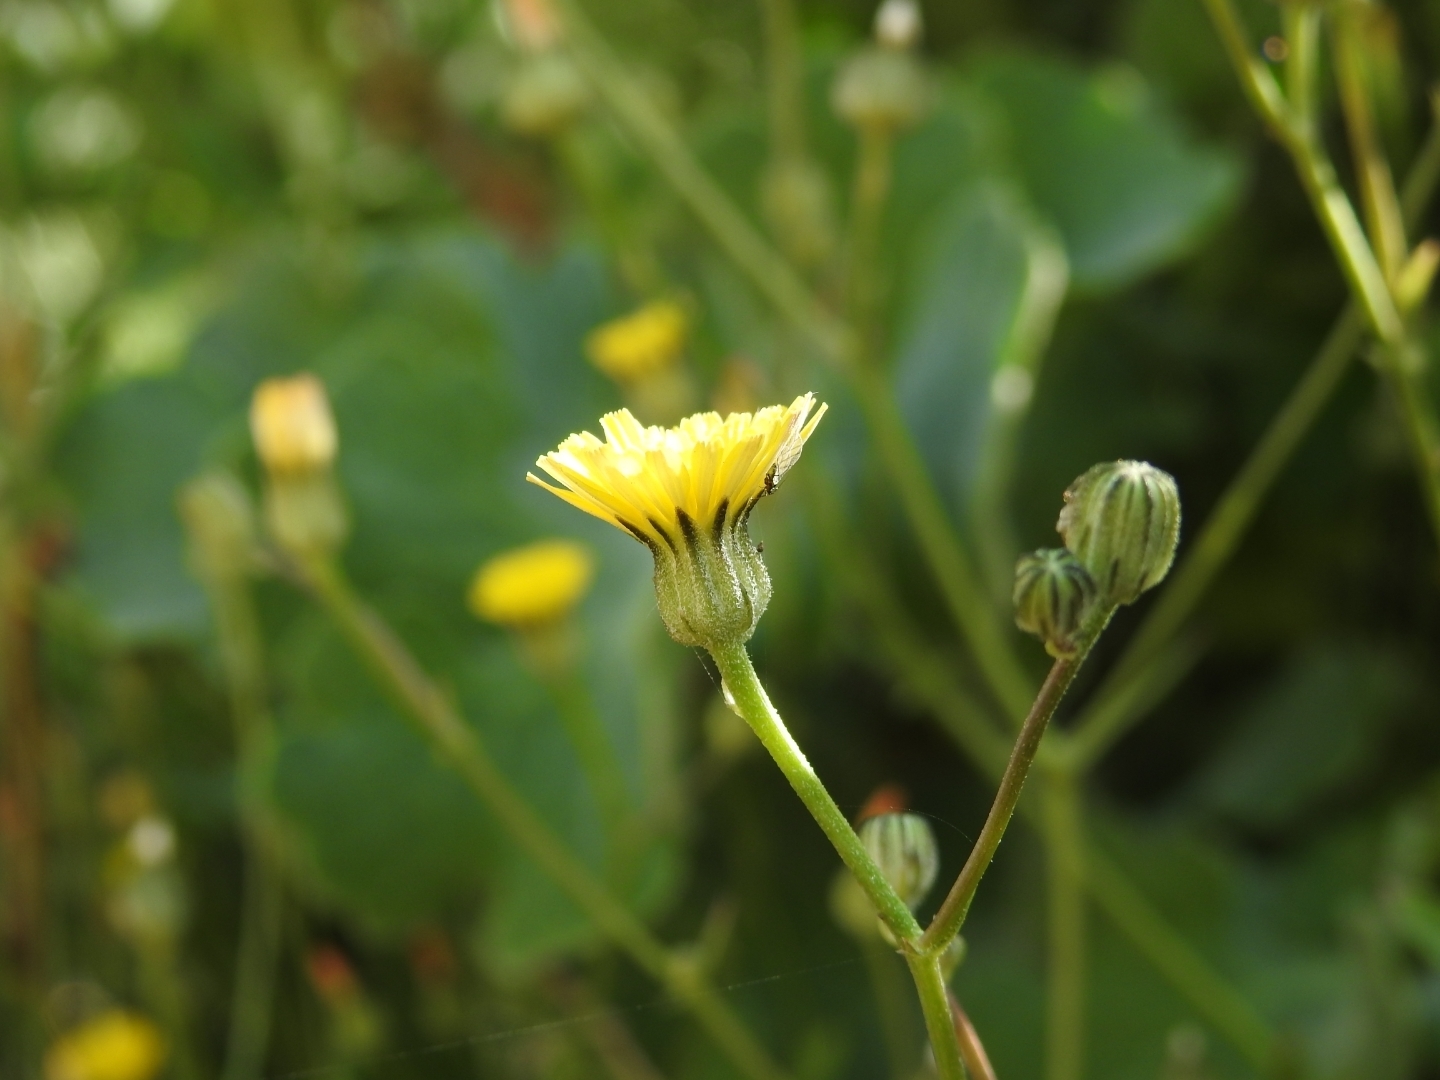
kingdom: Plantae
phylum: Tracheophyta
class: Magnoliopsida
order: Asterales
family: Asteraceae
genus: Crepis
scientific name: Crepis vesicaria
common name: Beaked hawksbeard
